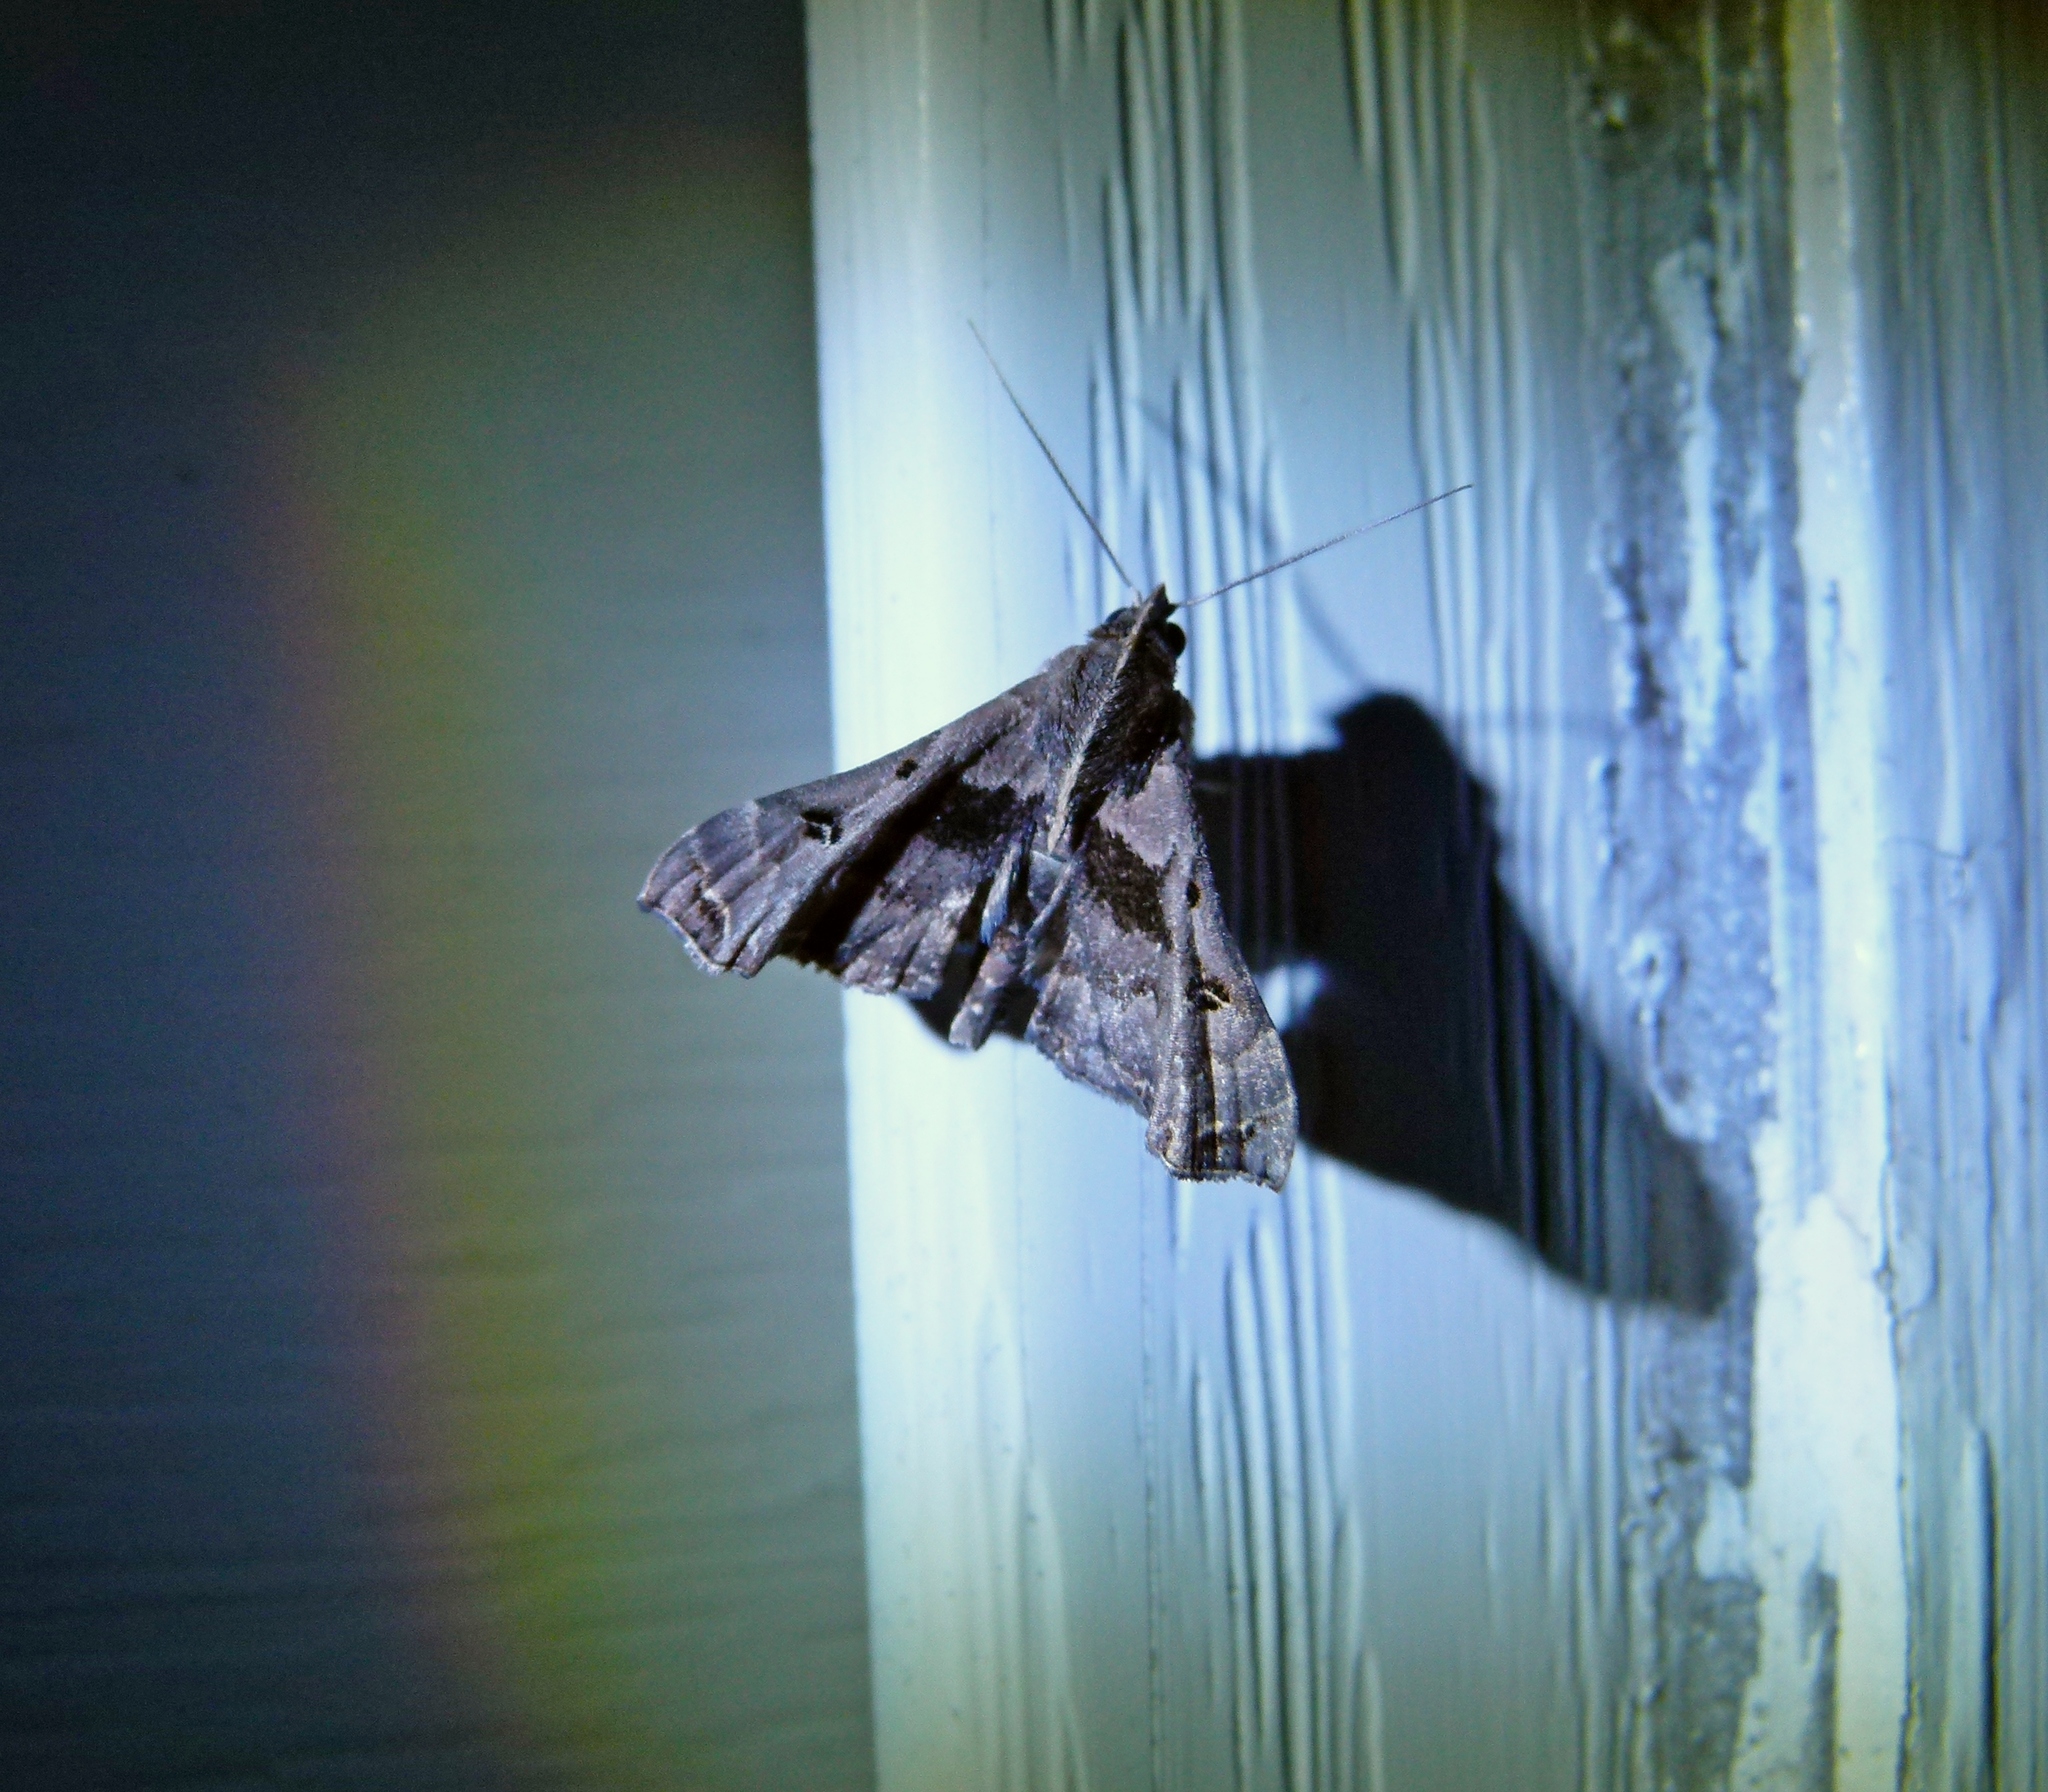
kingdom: Animalia
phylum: Arthropoda
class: Insecta
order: Lepidoptera
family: Erebidae
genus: Palthis
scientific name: Palthis asopialis
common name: Faint-spotted palthis moth
